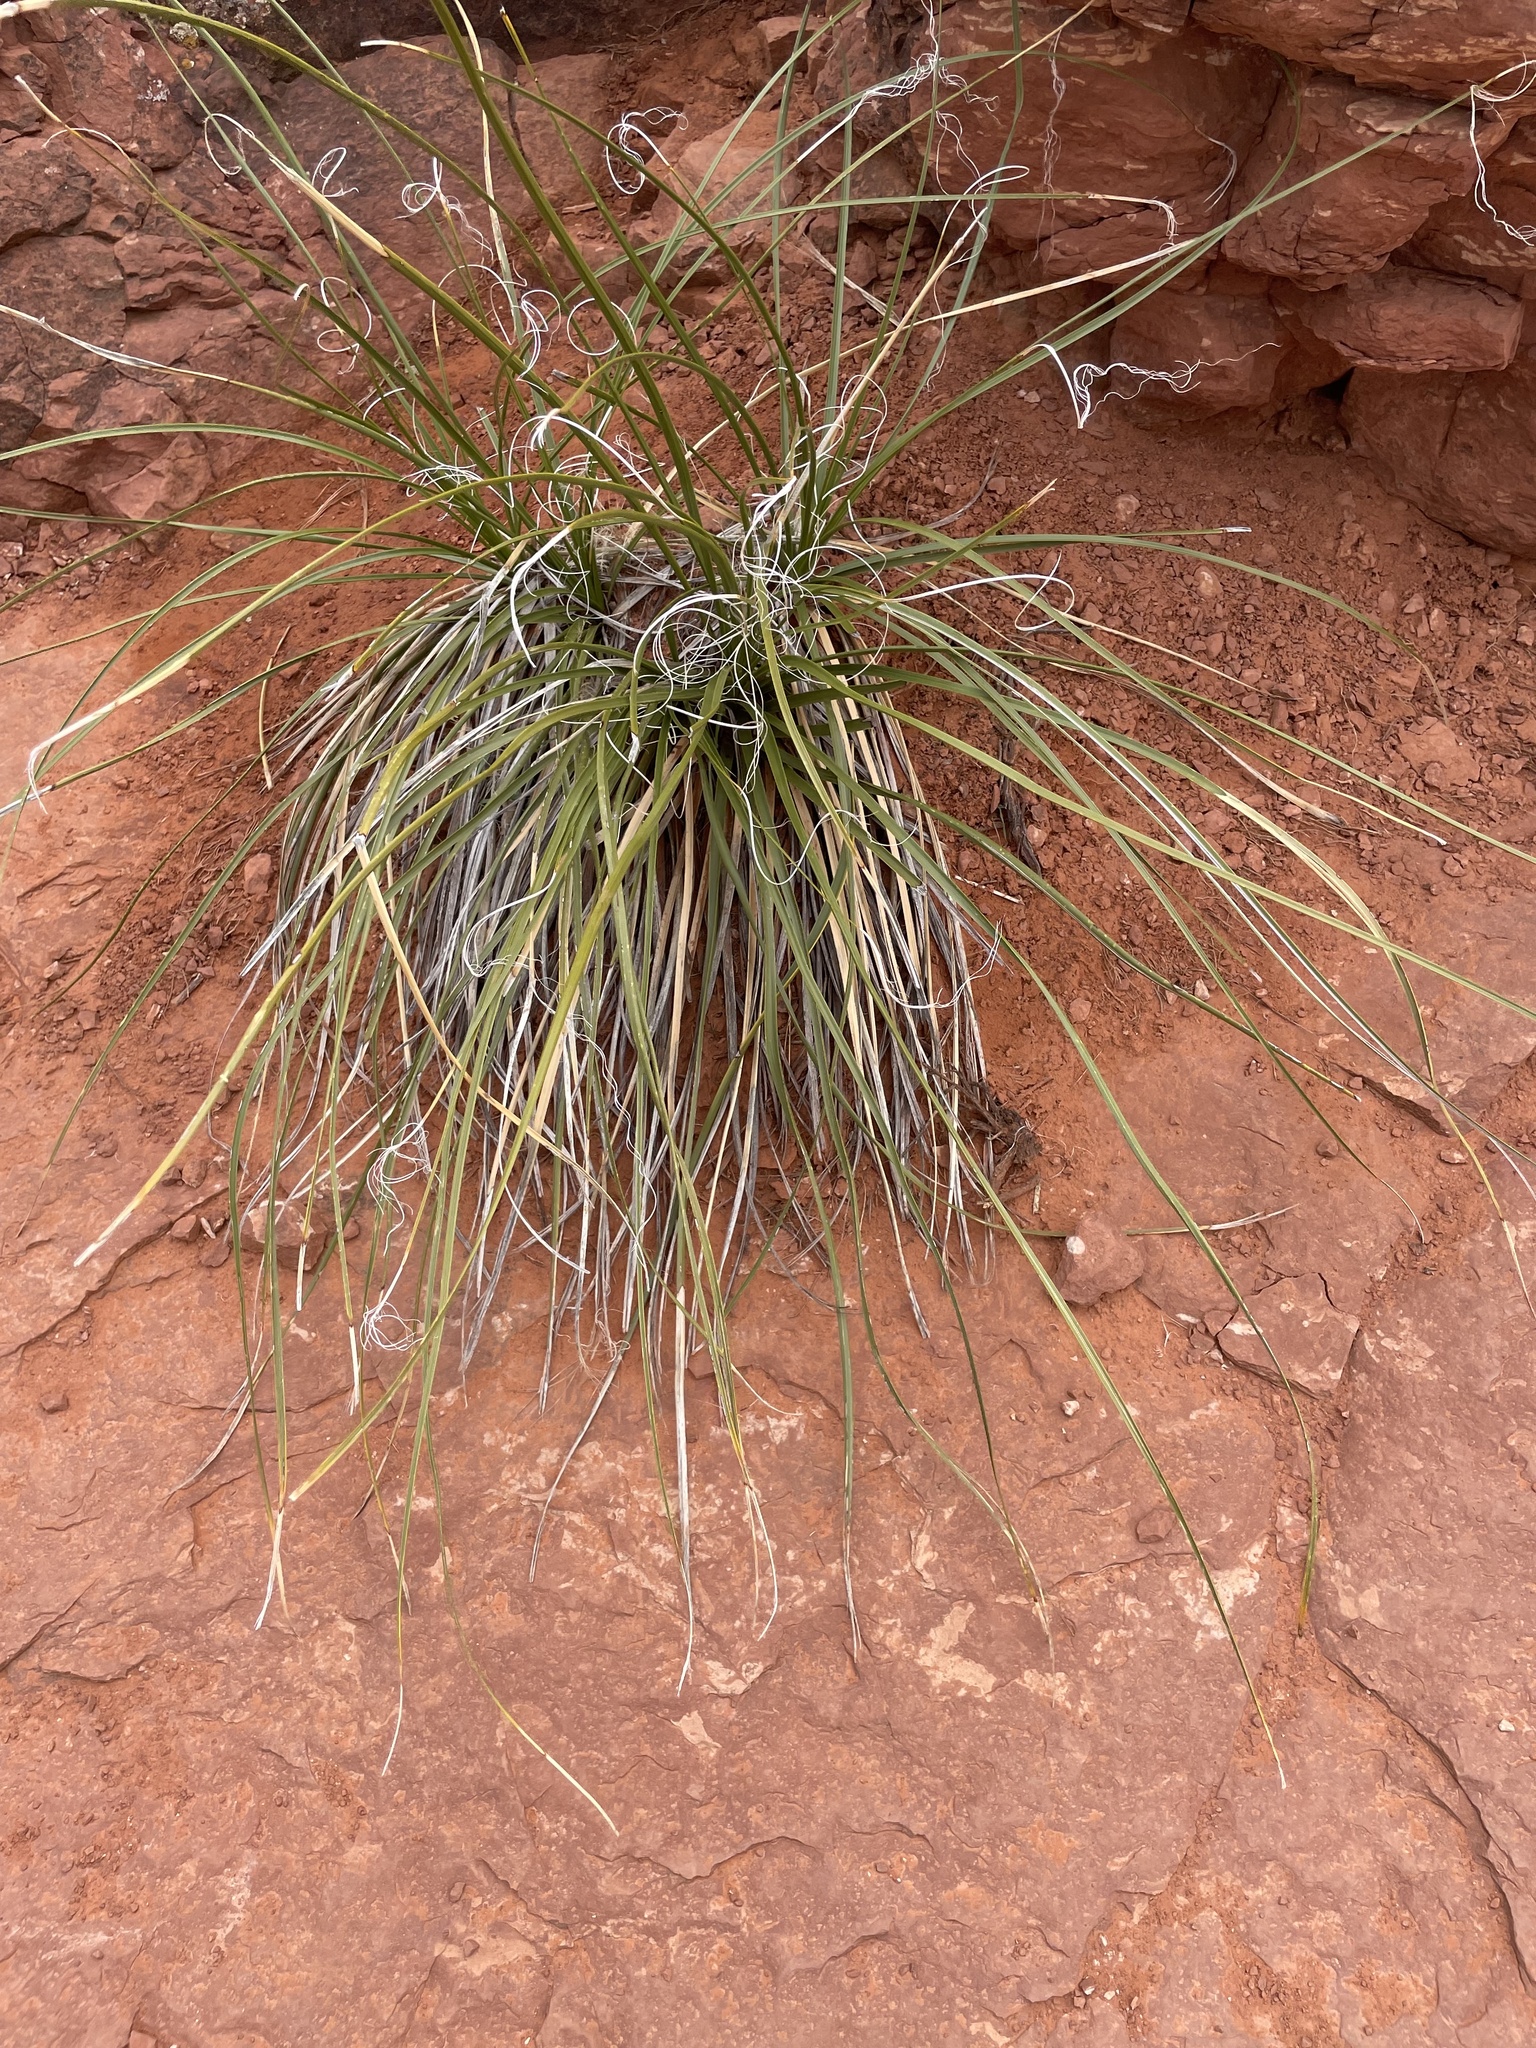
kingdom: Plantae
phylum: Tracheophyta
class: Liliopsida
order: Asparagales
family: Asparagaceae
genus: Nolina
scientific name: Nolina microcarpa
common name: Bear-grass
